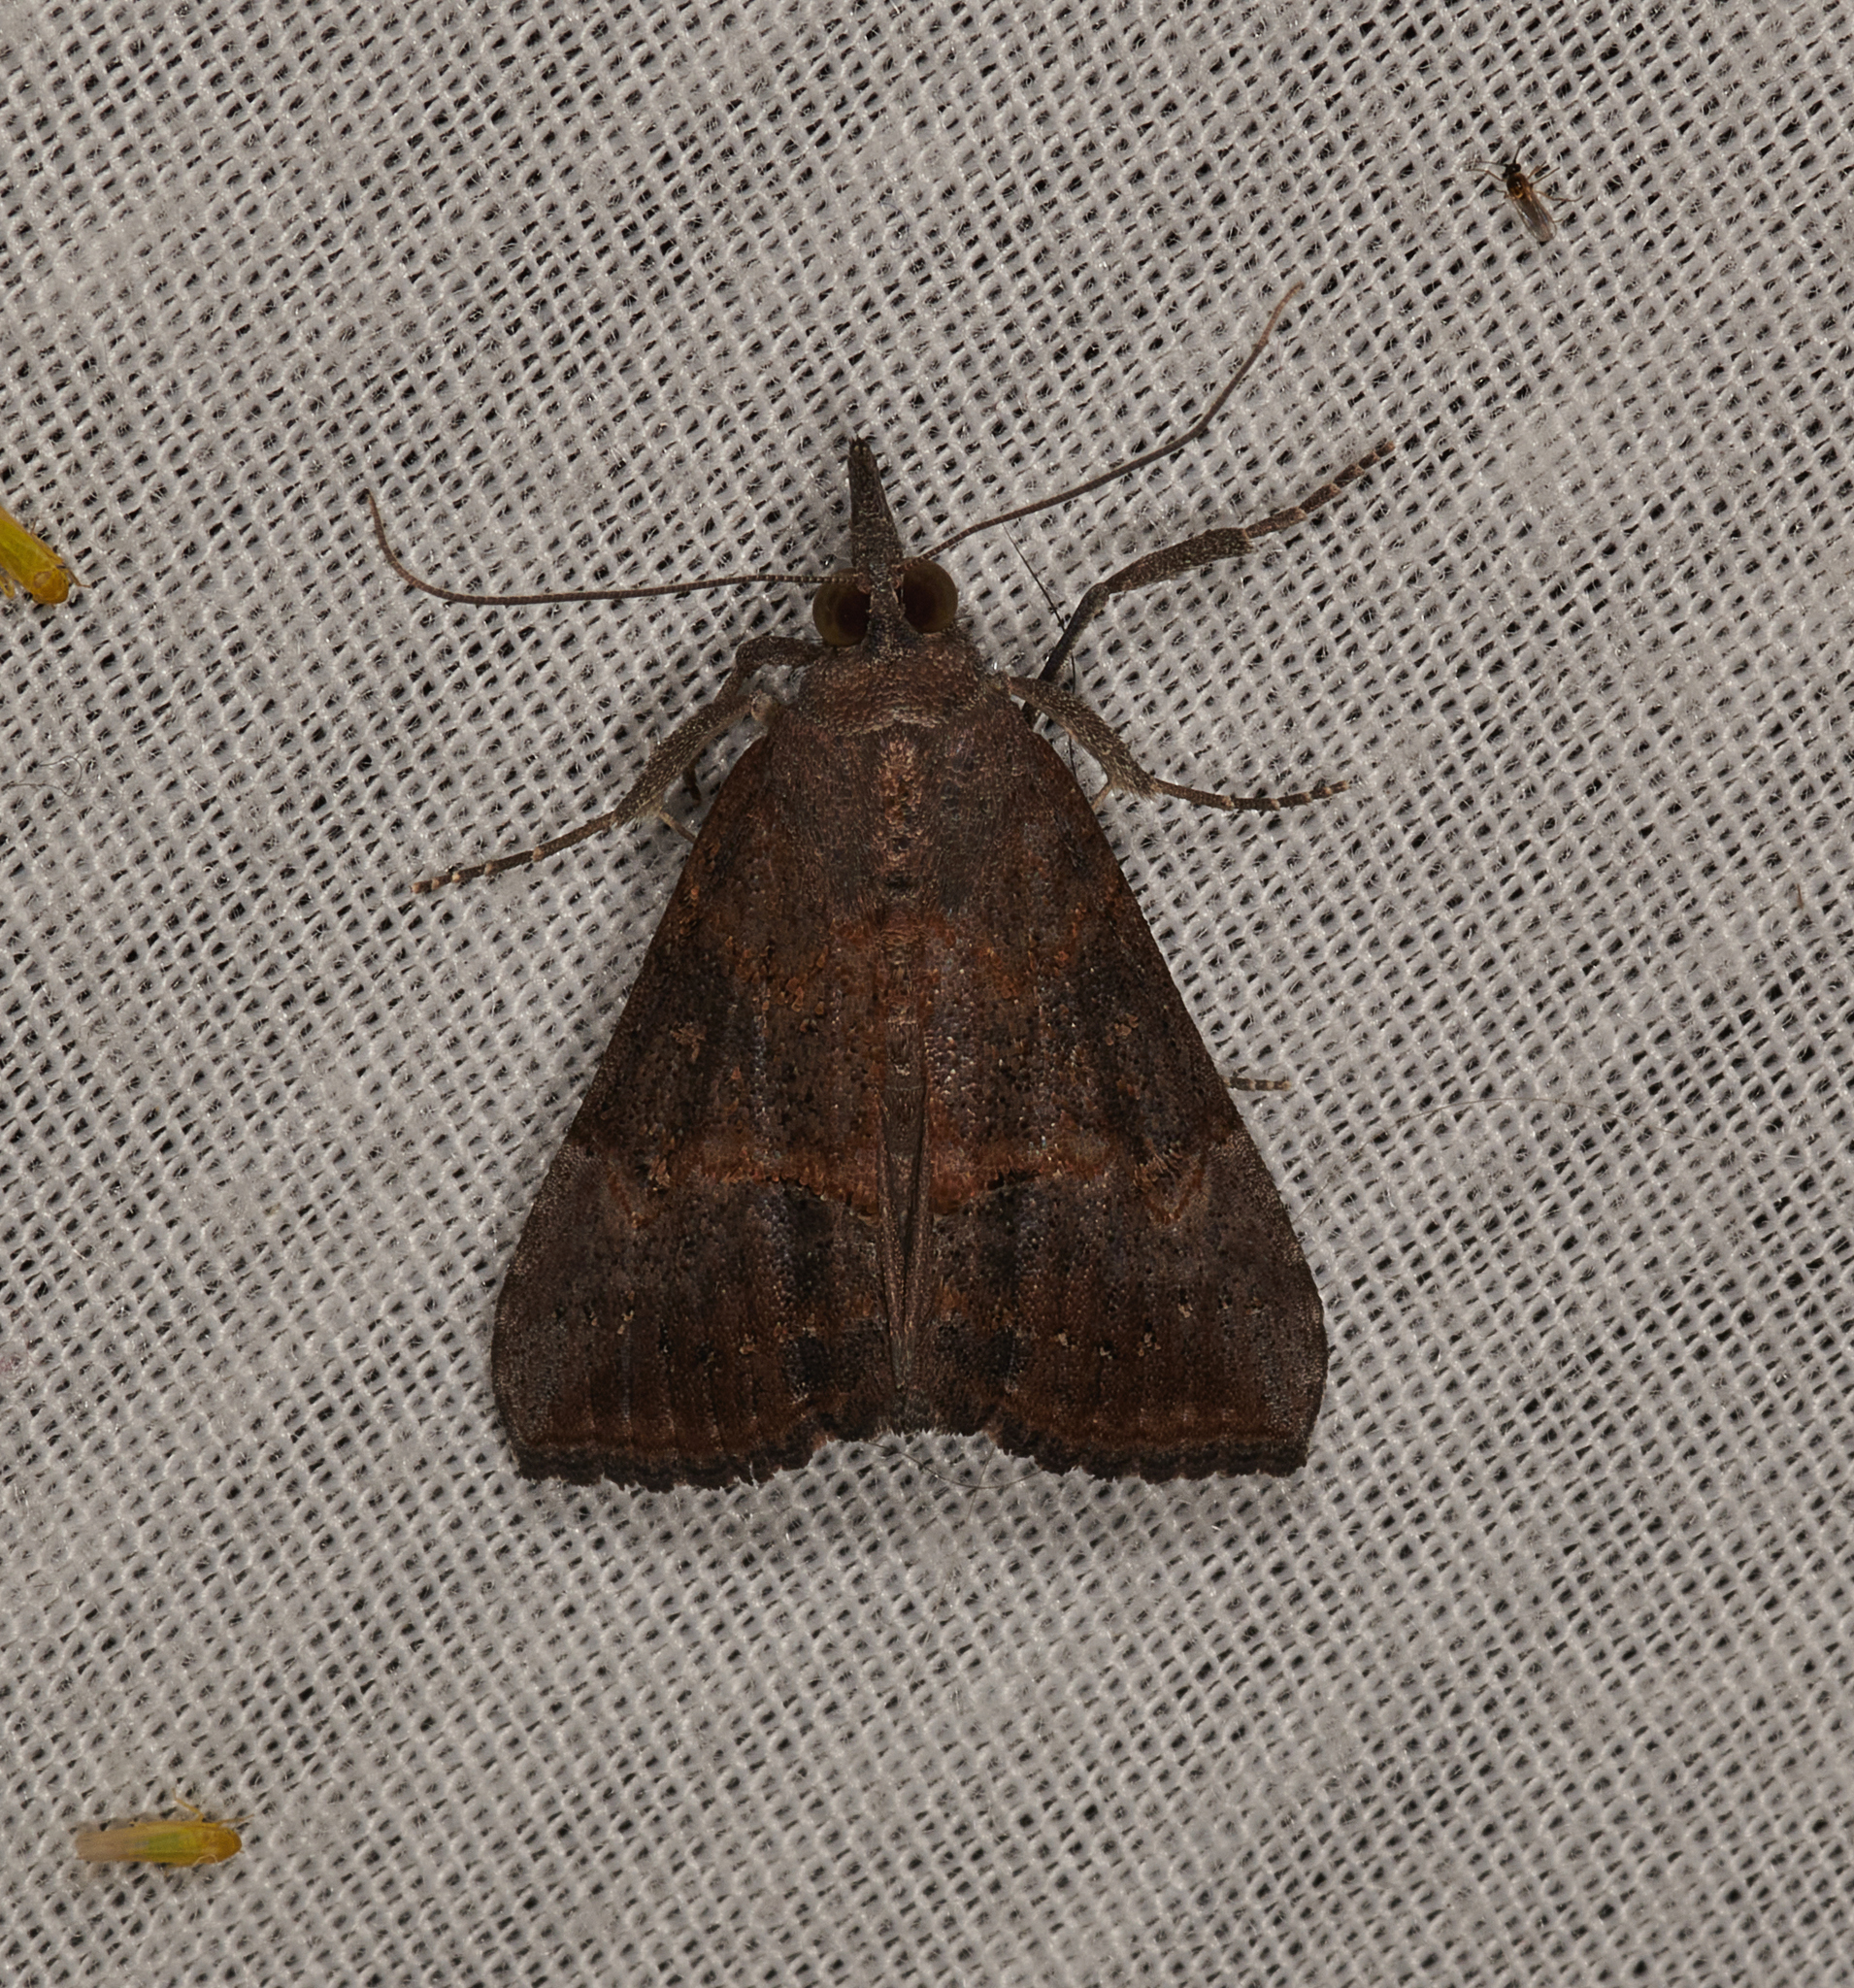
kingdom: Animalia
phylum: Arthropoda
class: Insecta
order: Lepidoptera
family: Erebidae
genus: Hypena
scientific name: Hypena scabra
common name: Green cloverworm
